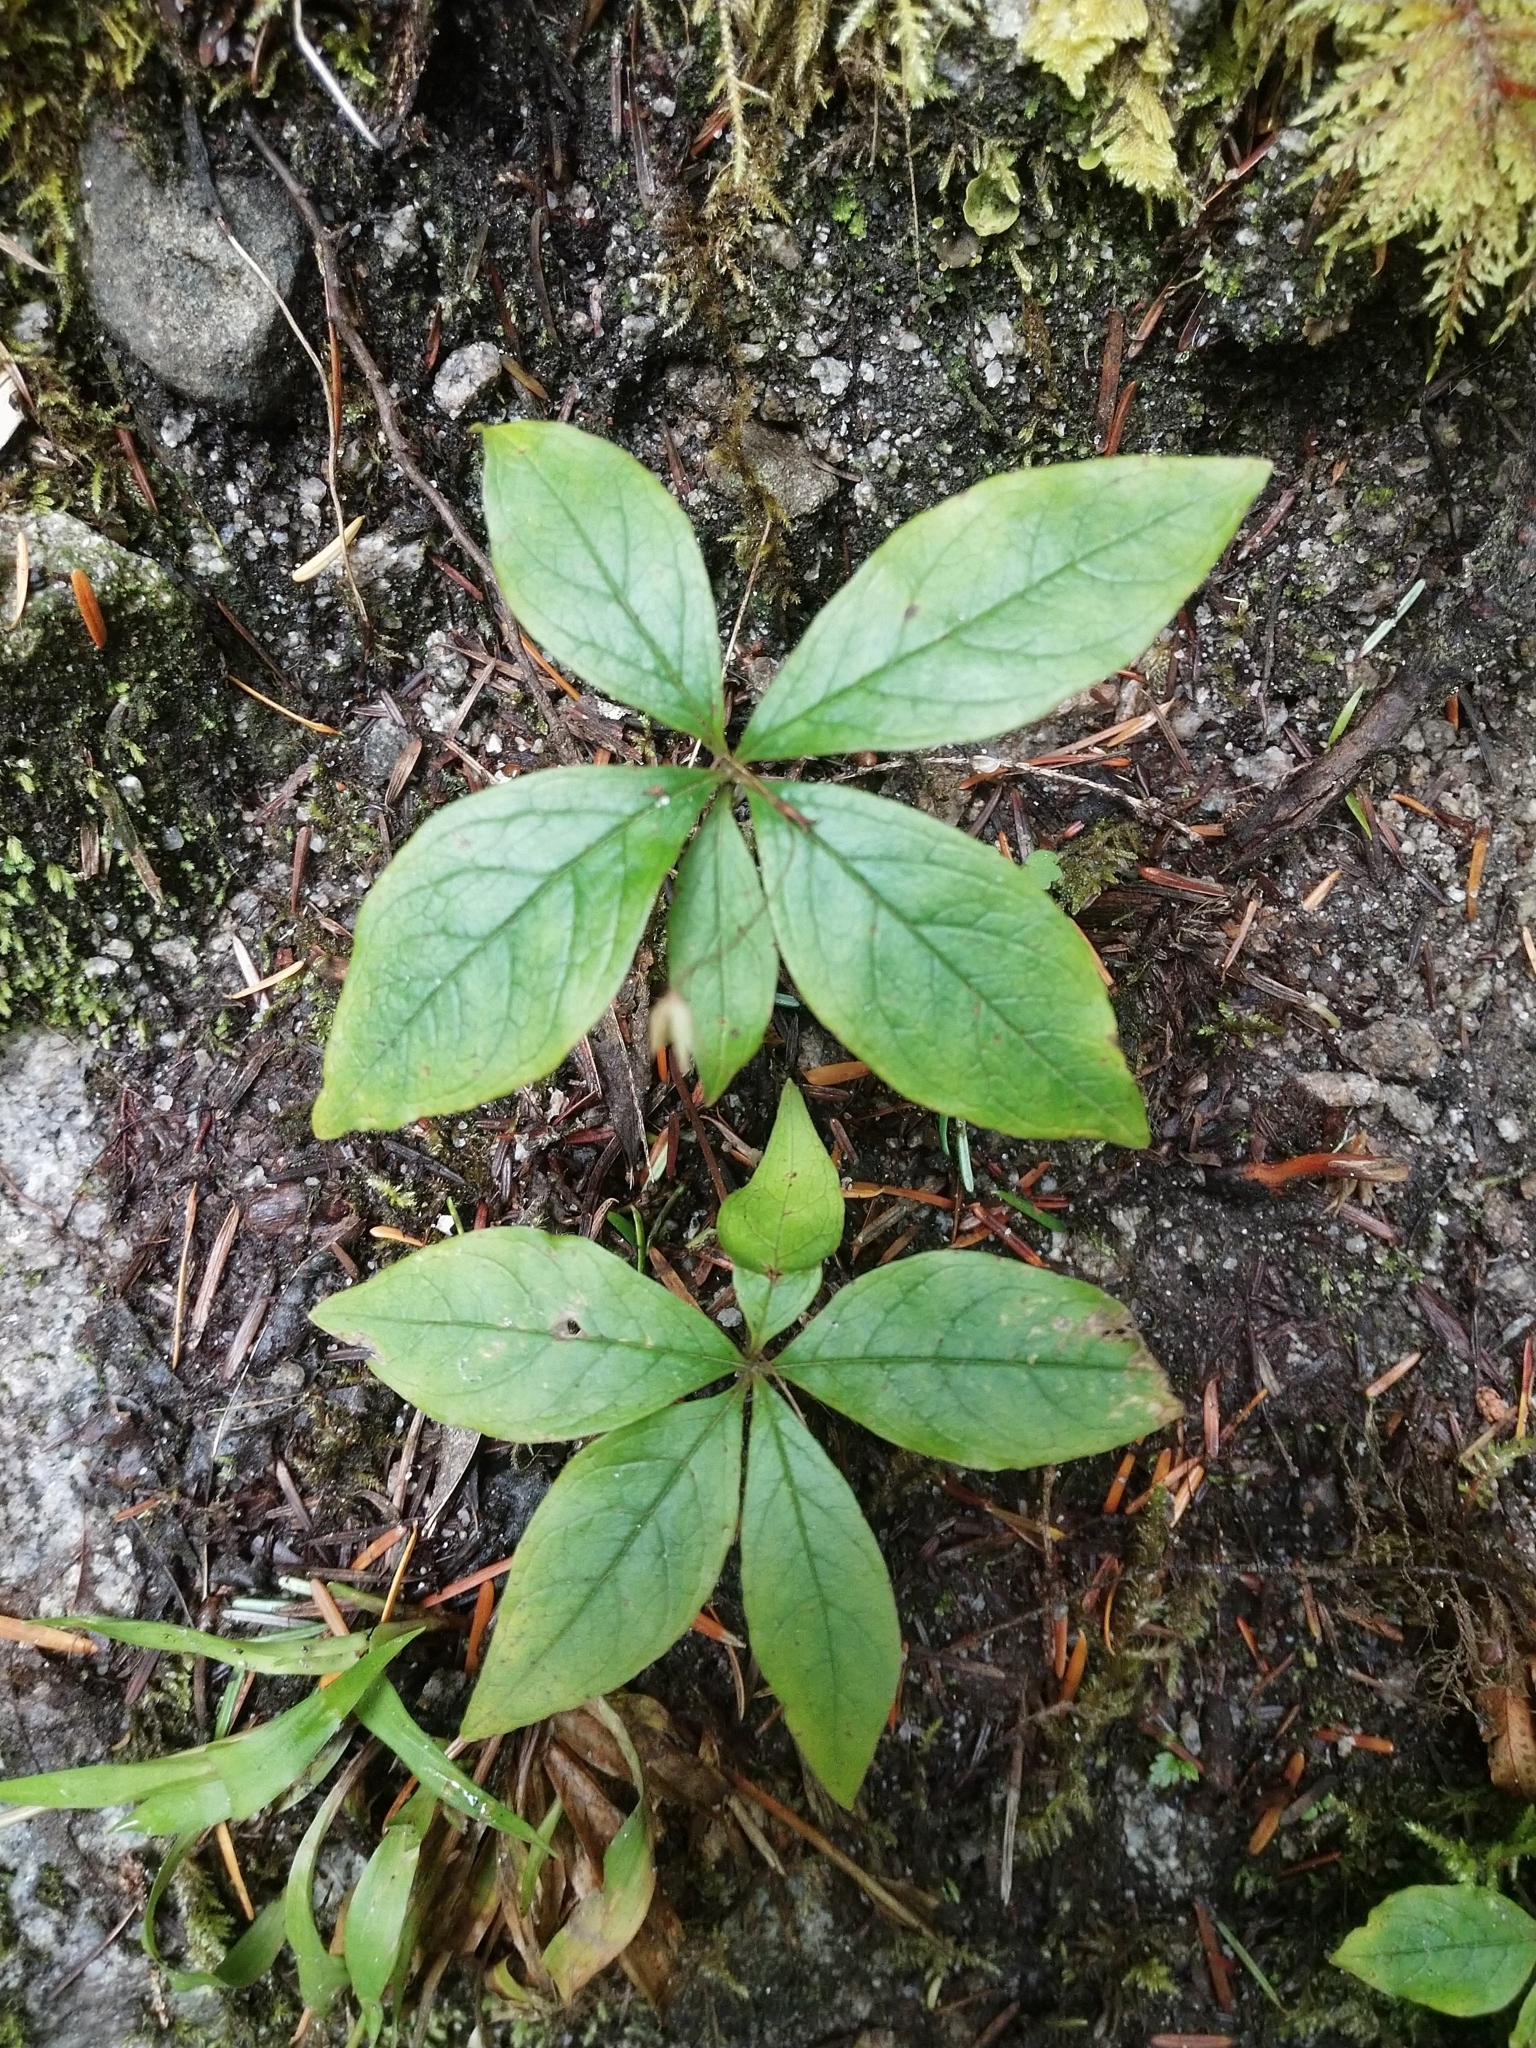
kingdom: Plantae
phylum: Tracheophyta
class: Magnoliopsida
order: Ericales
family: Primulaceae
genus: Lysimachia
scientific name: Lysimachia latifolia
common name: Pacific starflower
